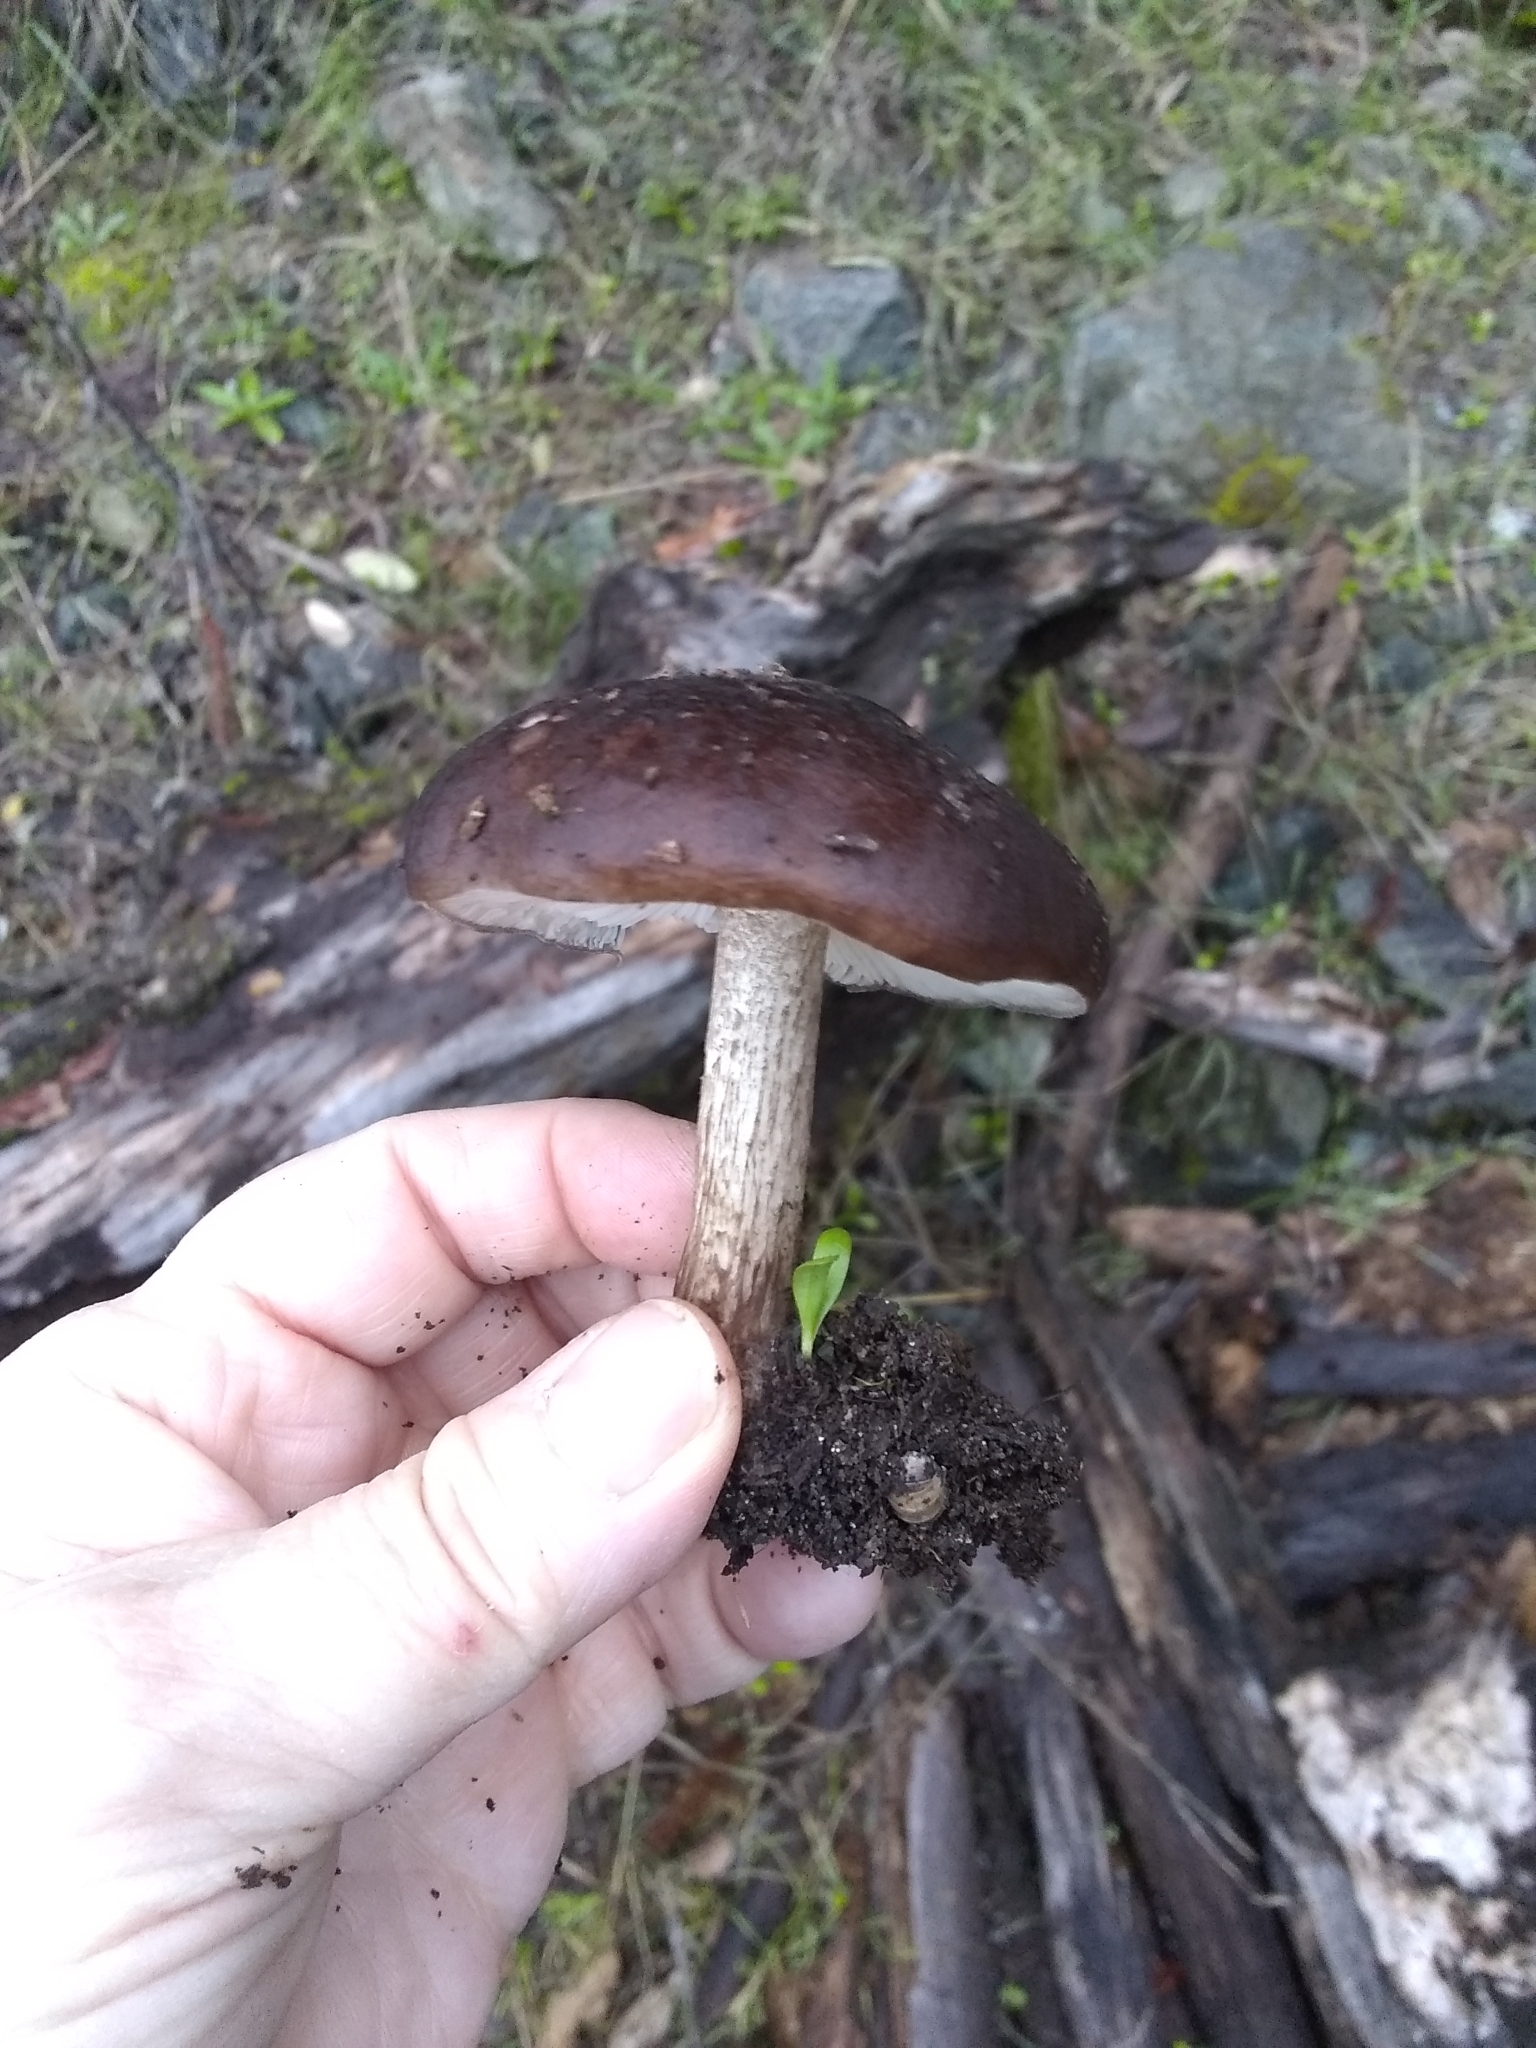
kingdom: Fungi
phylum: Basidiomycota
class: Agaricomycetes
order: Agaricales
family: Pluteaceae
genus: Pluteus
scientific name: Pluteus exilis
